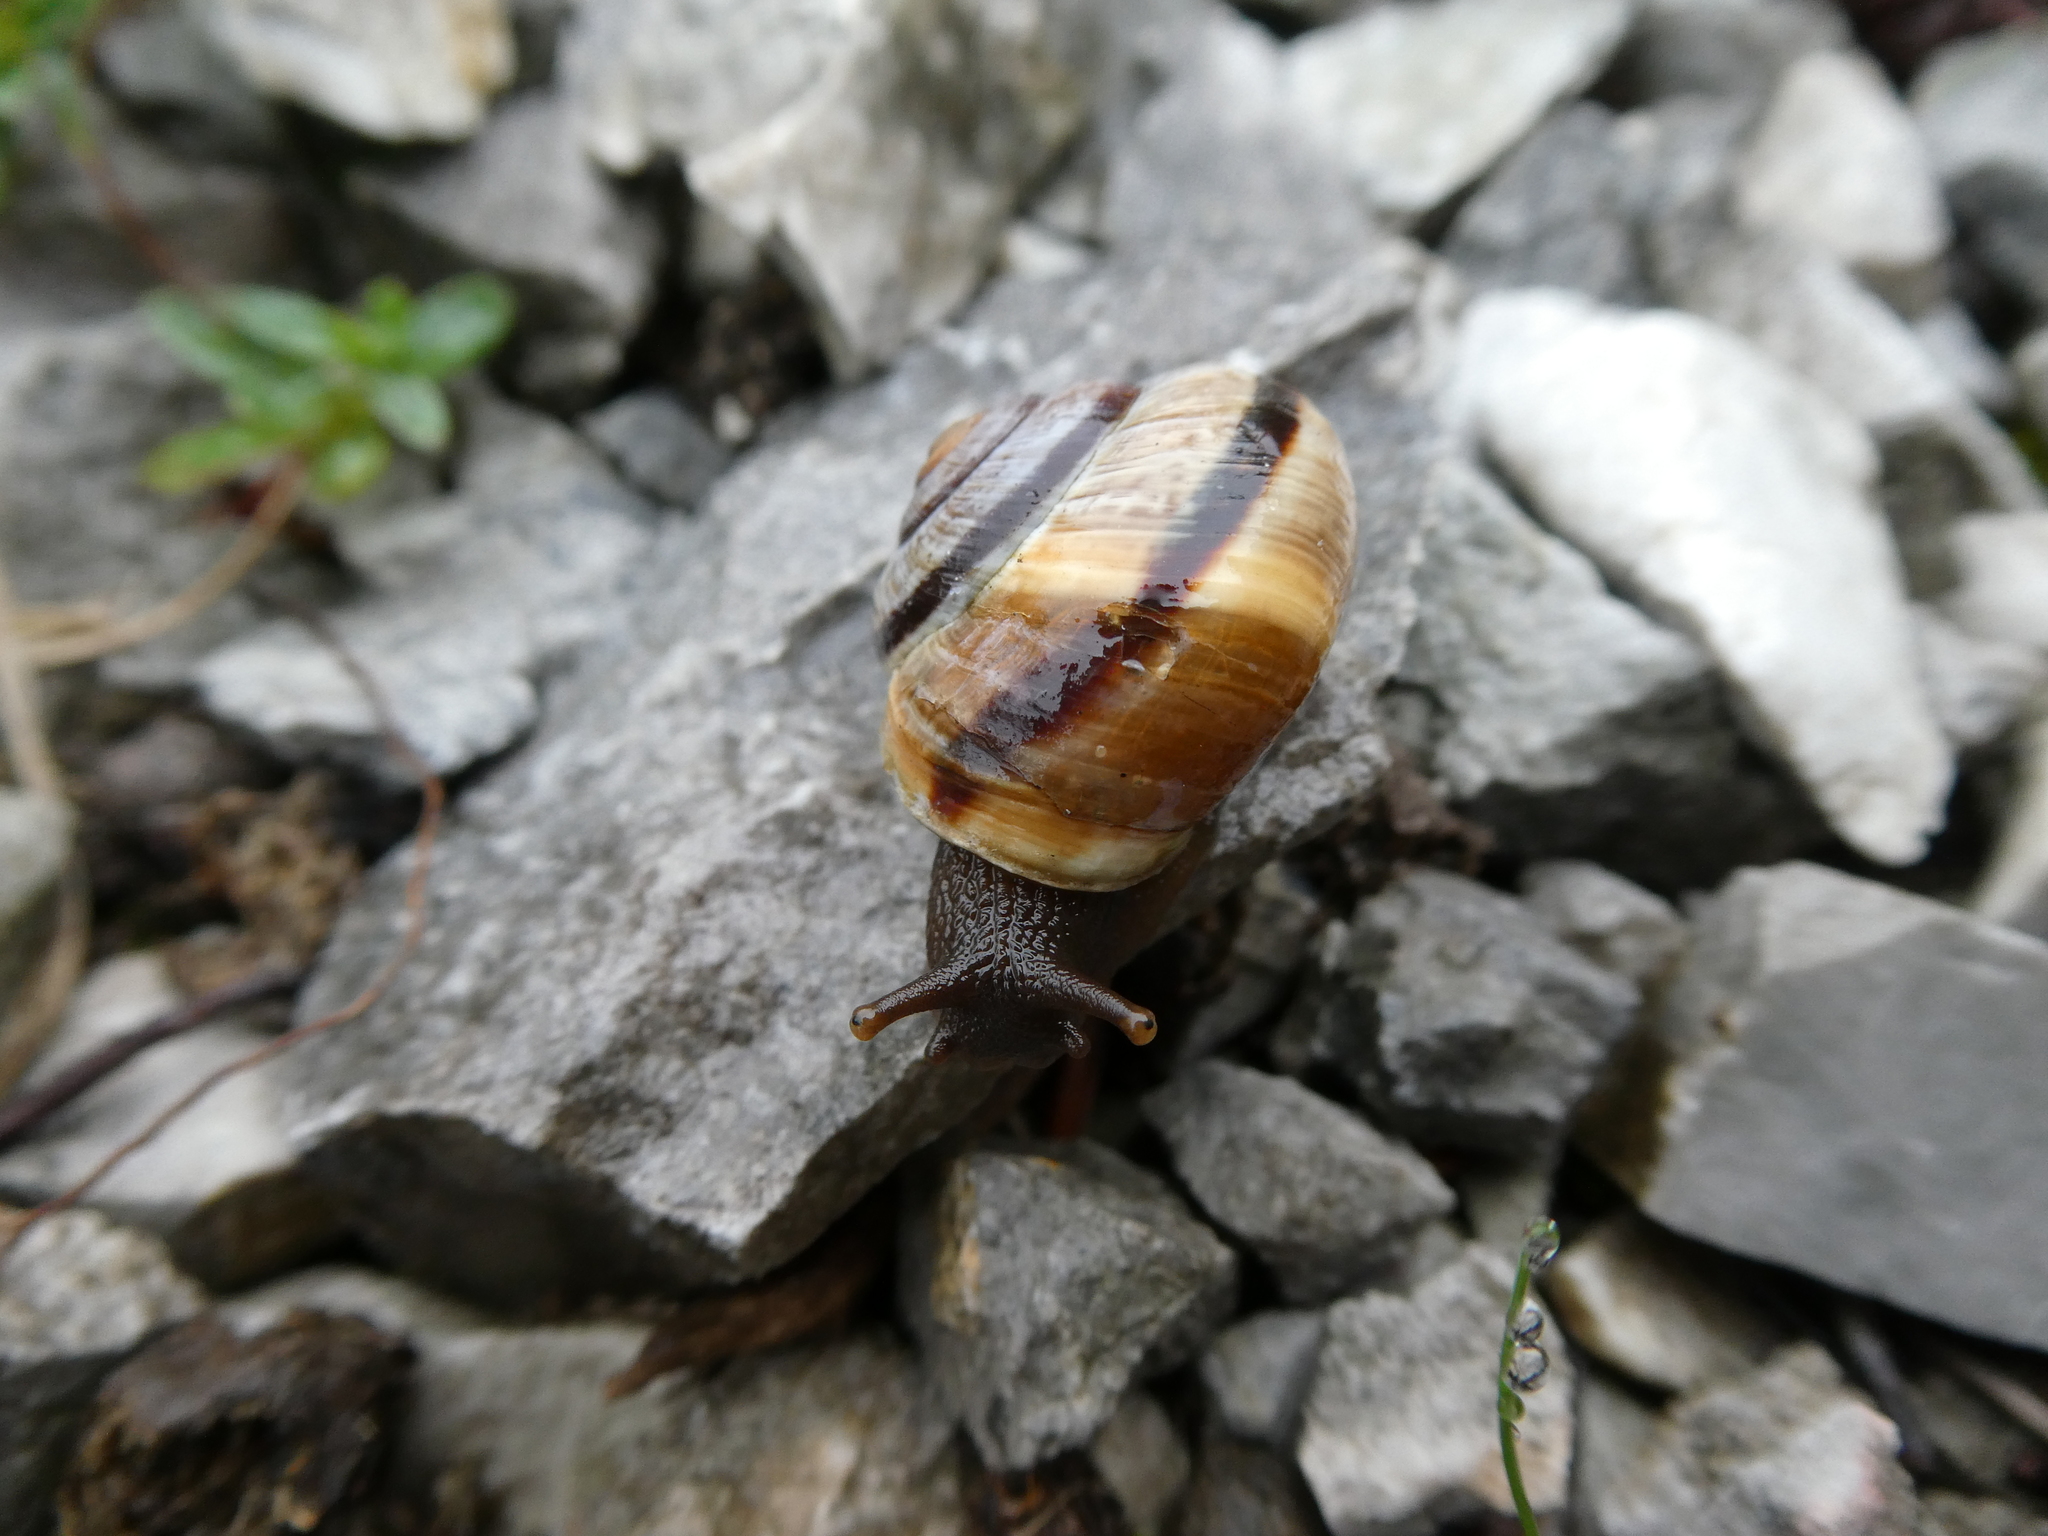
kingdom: Animalia
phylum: Mollusca
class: Gastropoda
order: Stylommatophora
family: Helicidae
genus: Arianta
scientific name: Arianta arbustorum
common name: Copse snail
